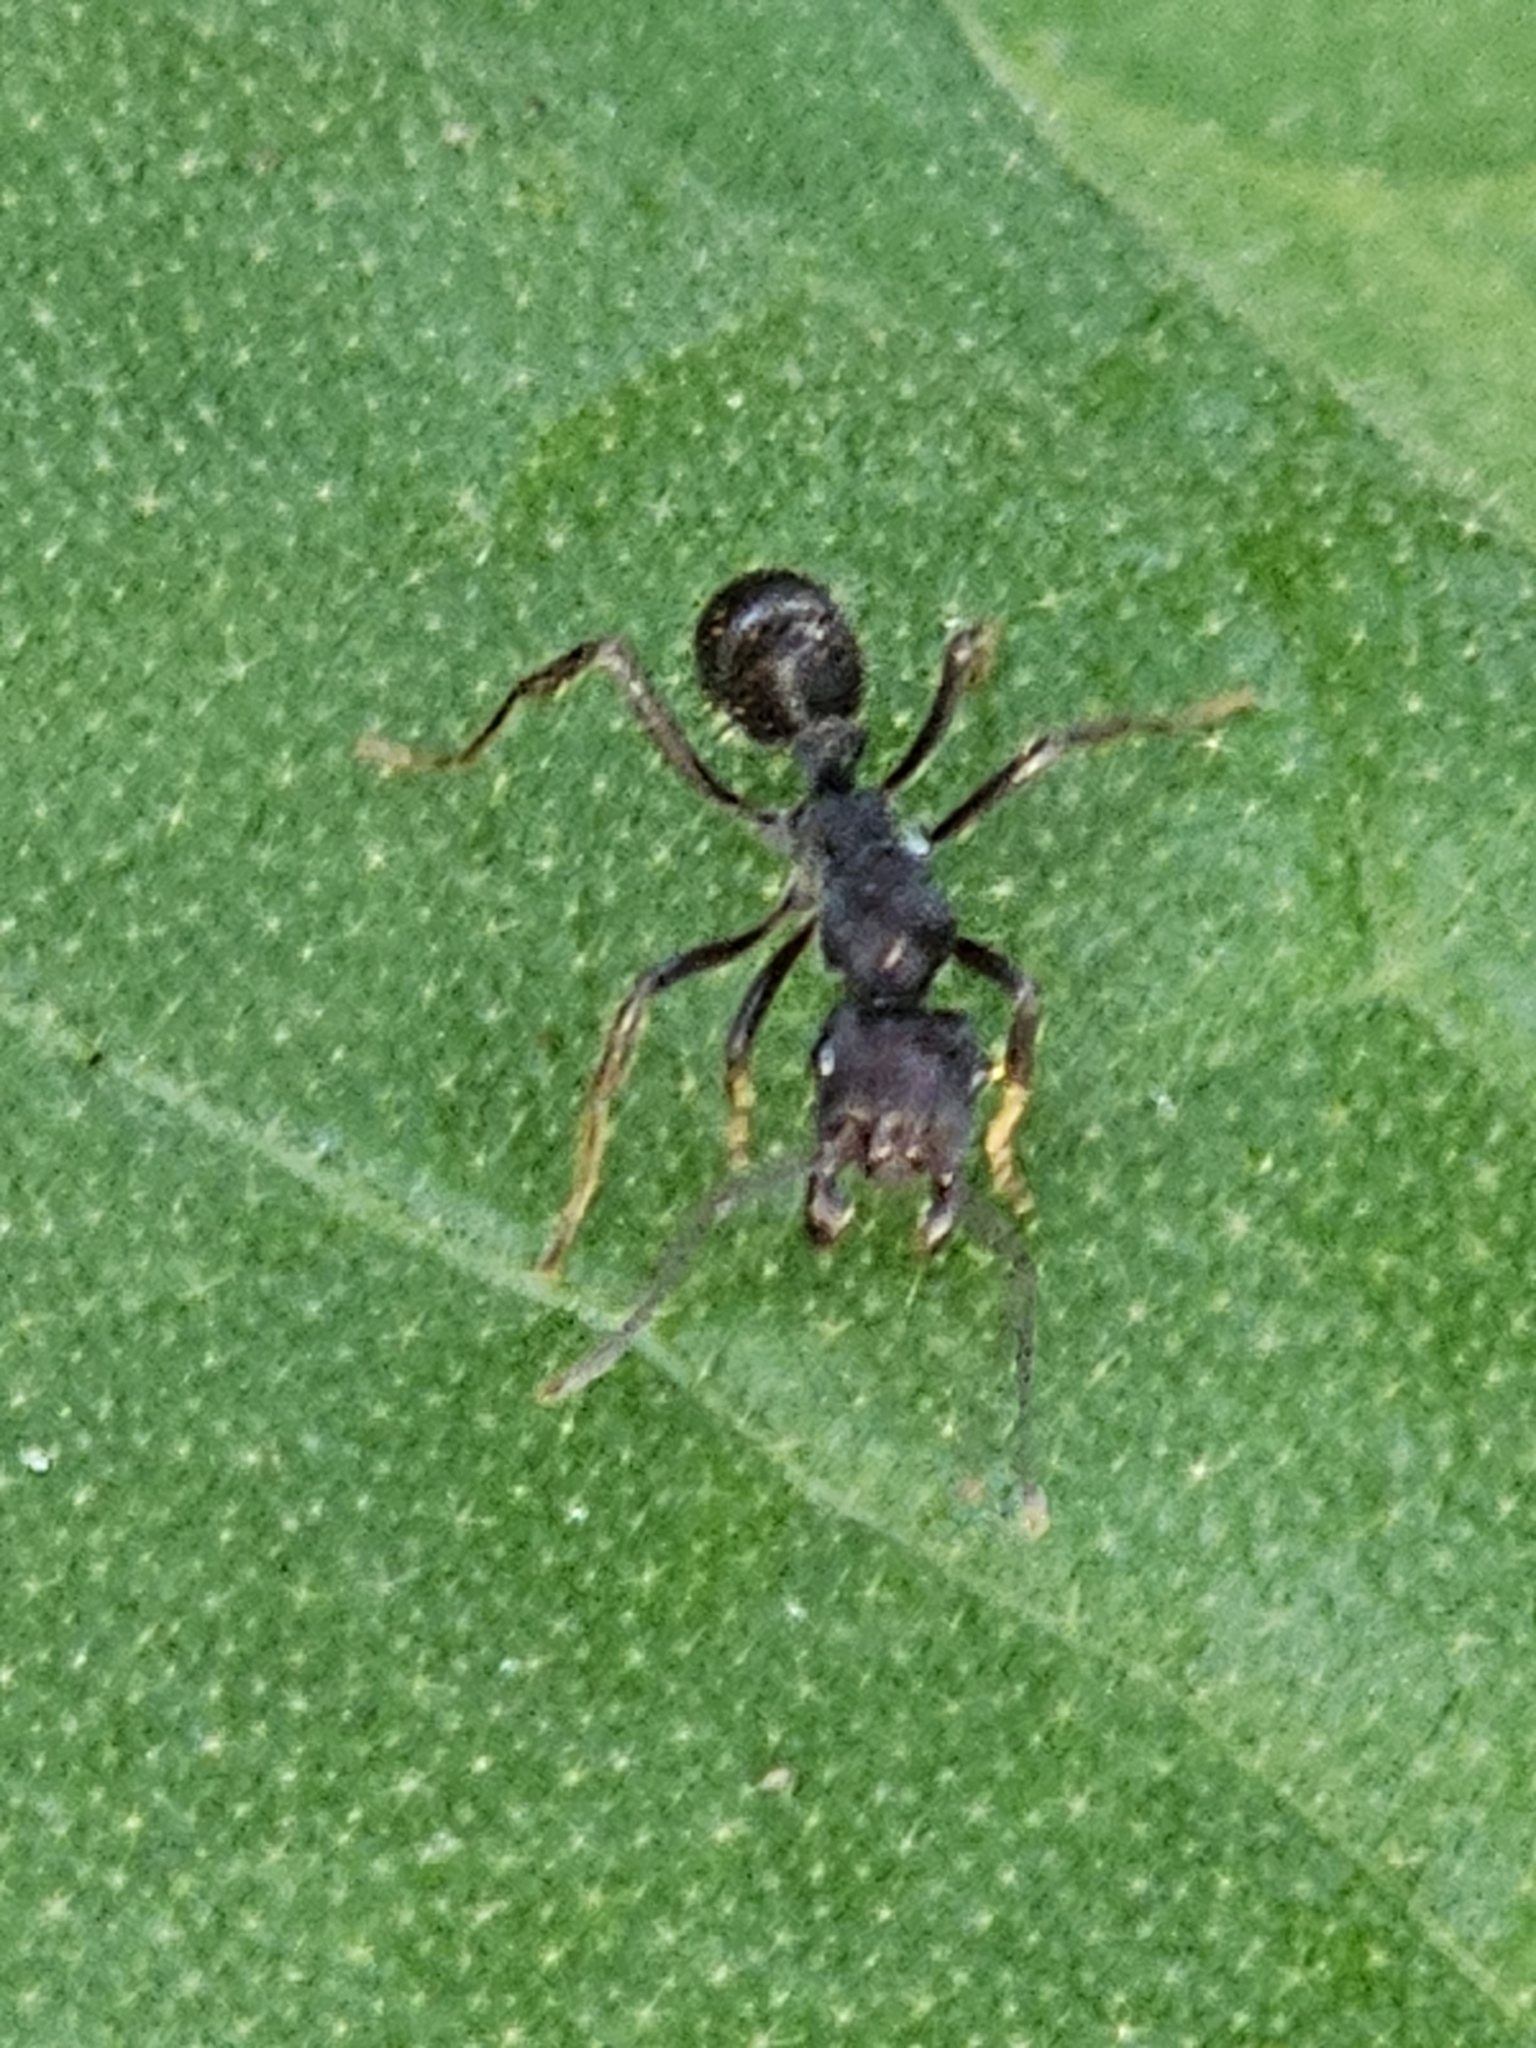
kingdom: Animalia
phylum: Arthropoda
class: Insecta
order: Hymenoptera
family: Formicidae
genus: Ectatomma
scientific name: Ectatomma brunneum
